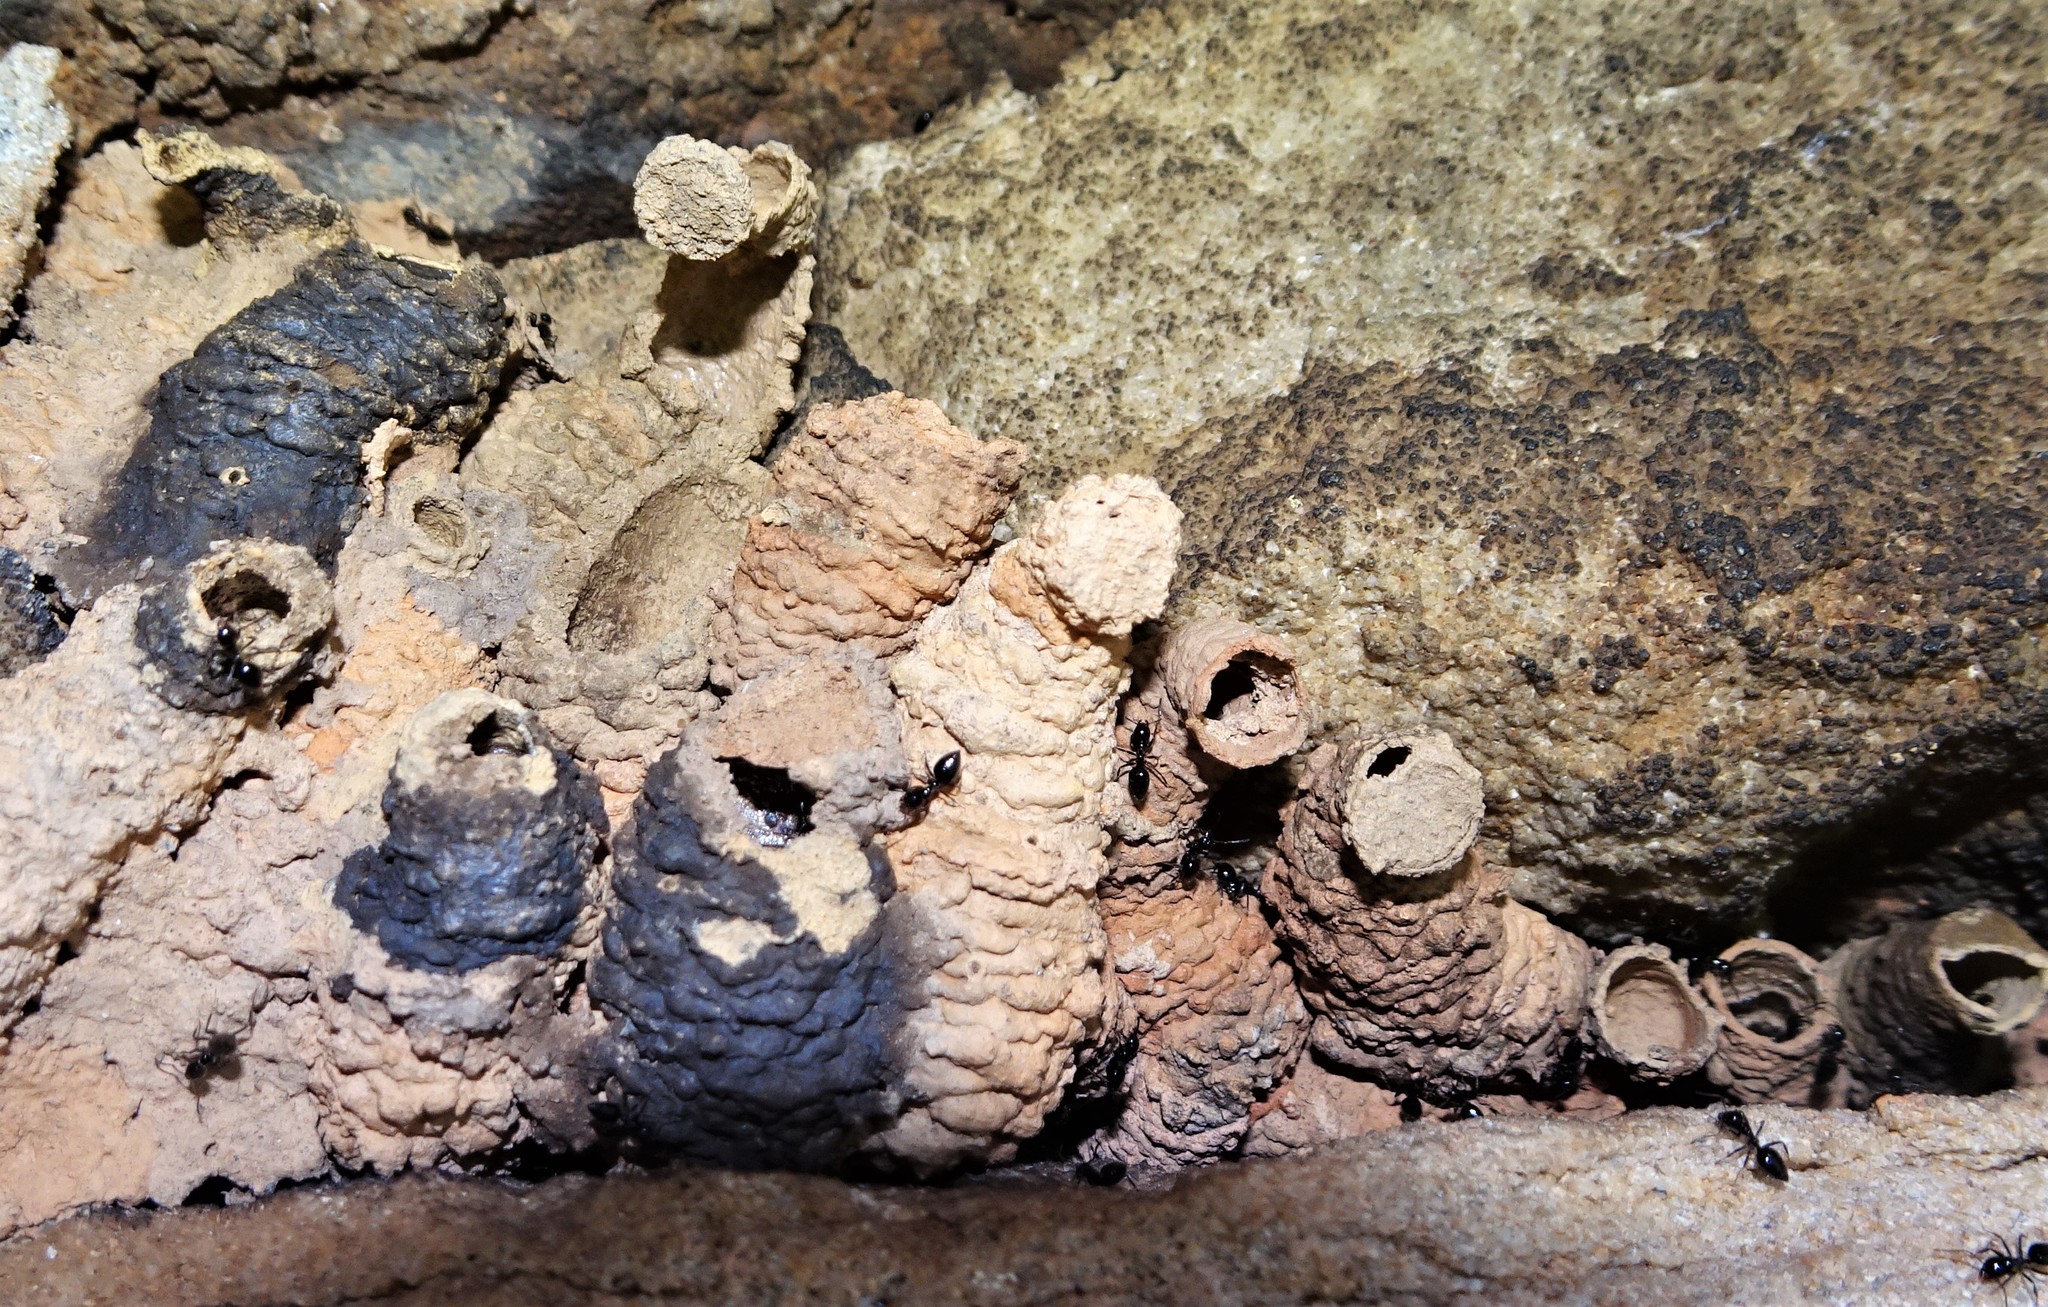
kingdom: Animalia
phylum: Arthropoda
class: Insecta
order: Hymenoptera
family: Eumenidae
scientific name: Eumenidae
